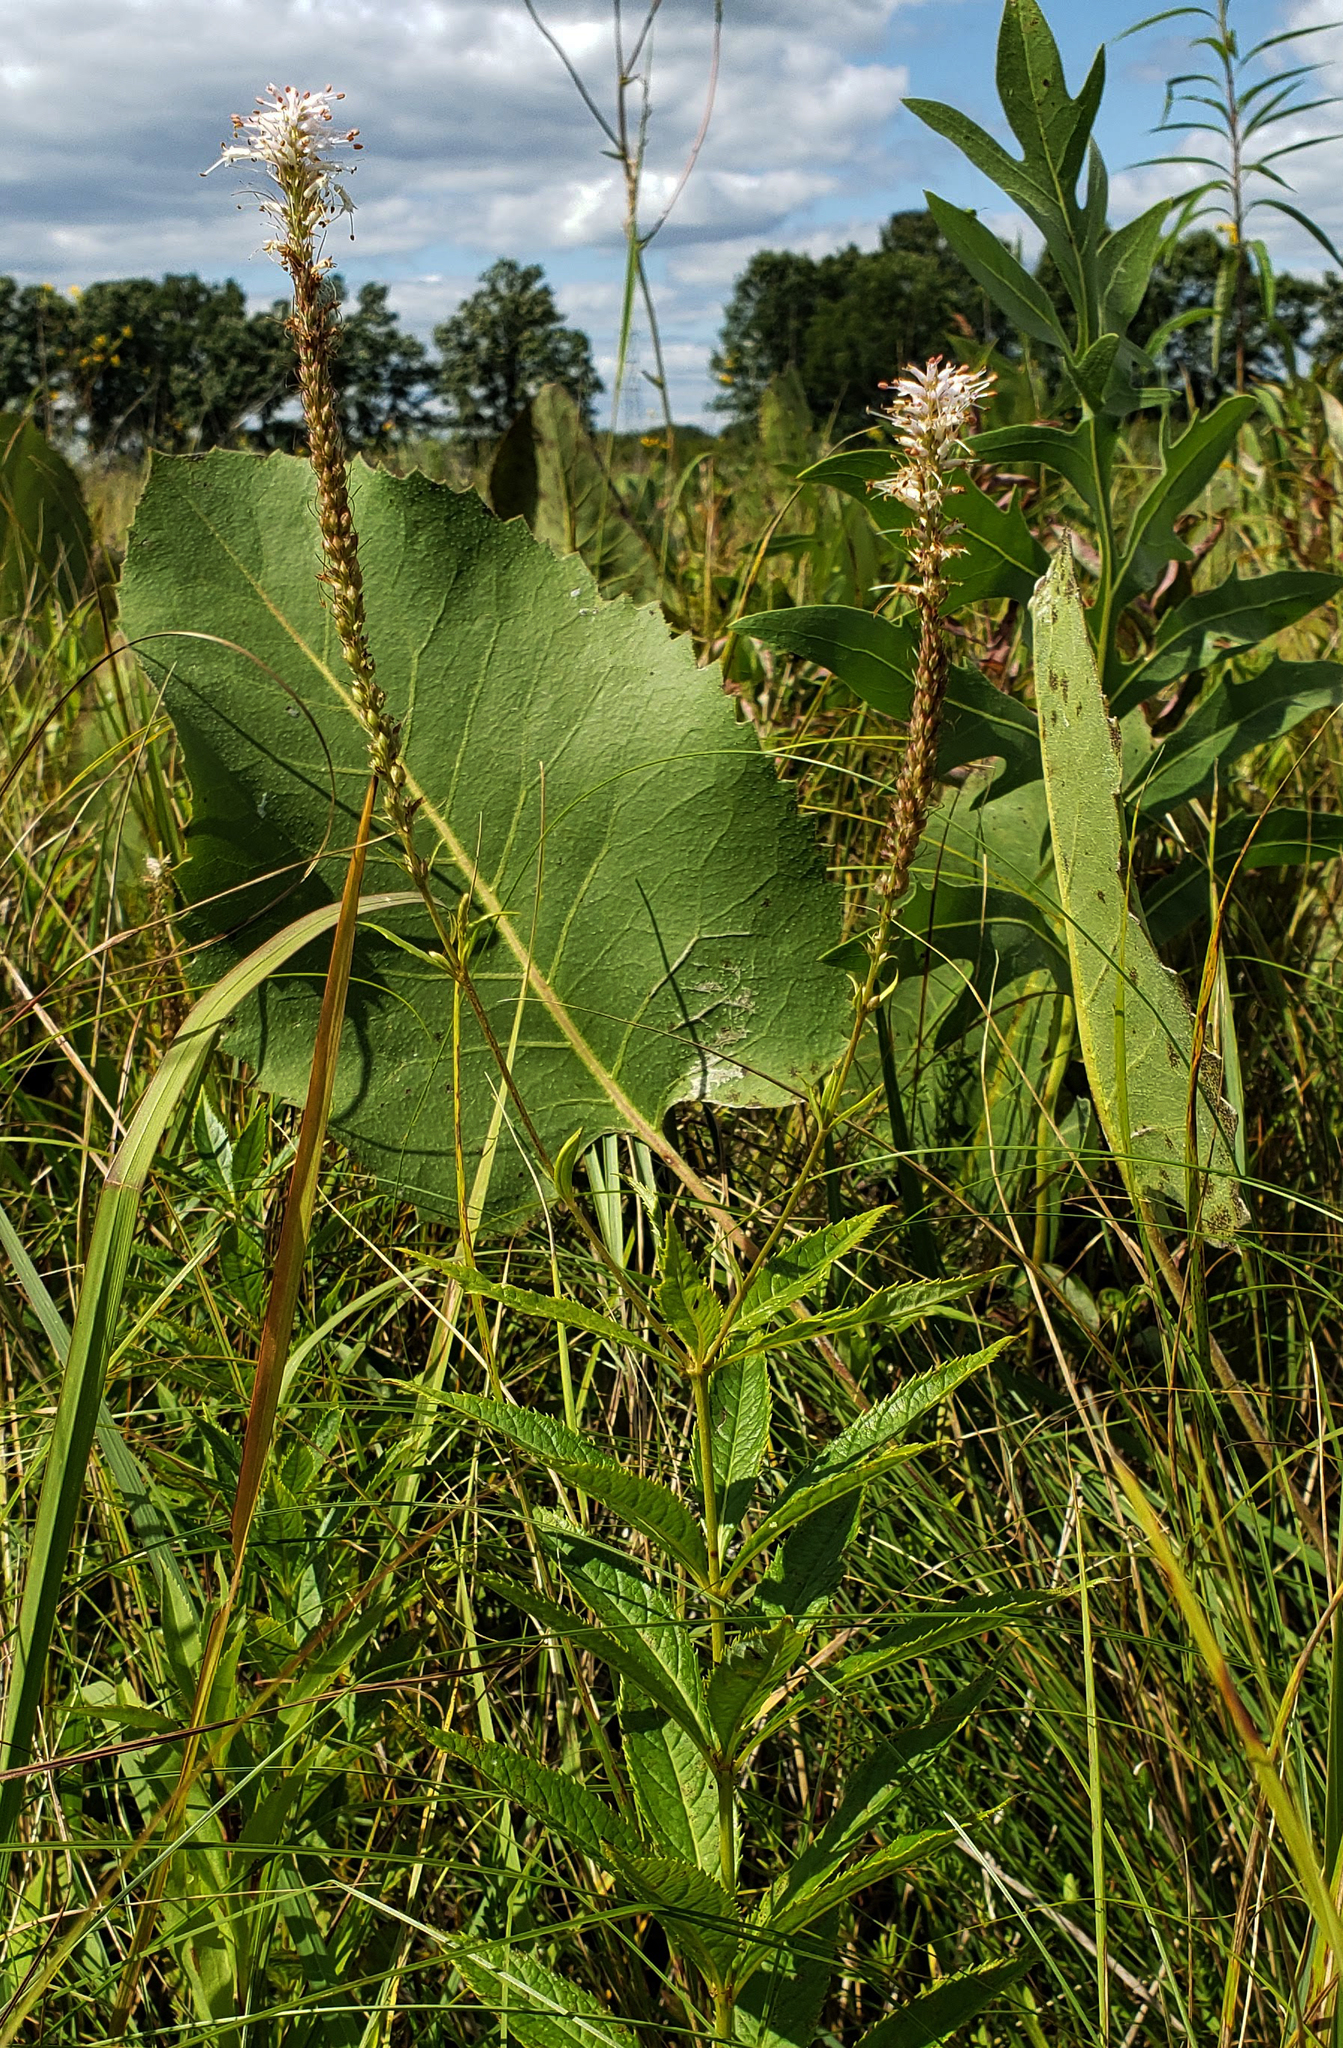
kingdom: Plantae
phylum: Tracheophyta
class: Magnoliopsida
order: Lamiales
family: Plantaginaceae
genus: Veronicastrum
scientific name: Veronicastrum virginicum
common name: Blackroot
